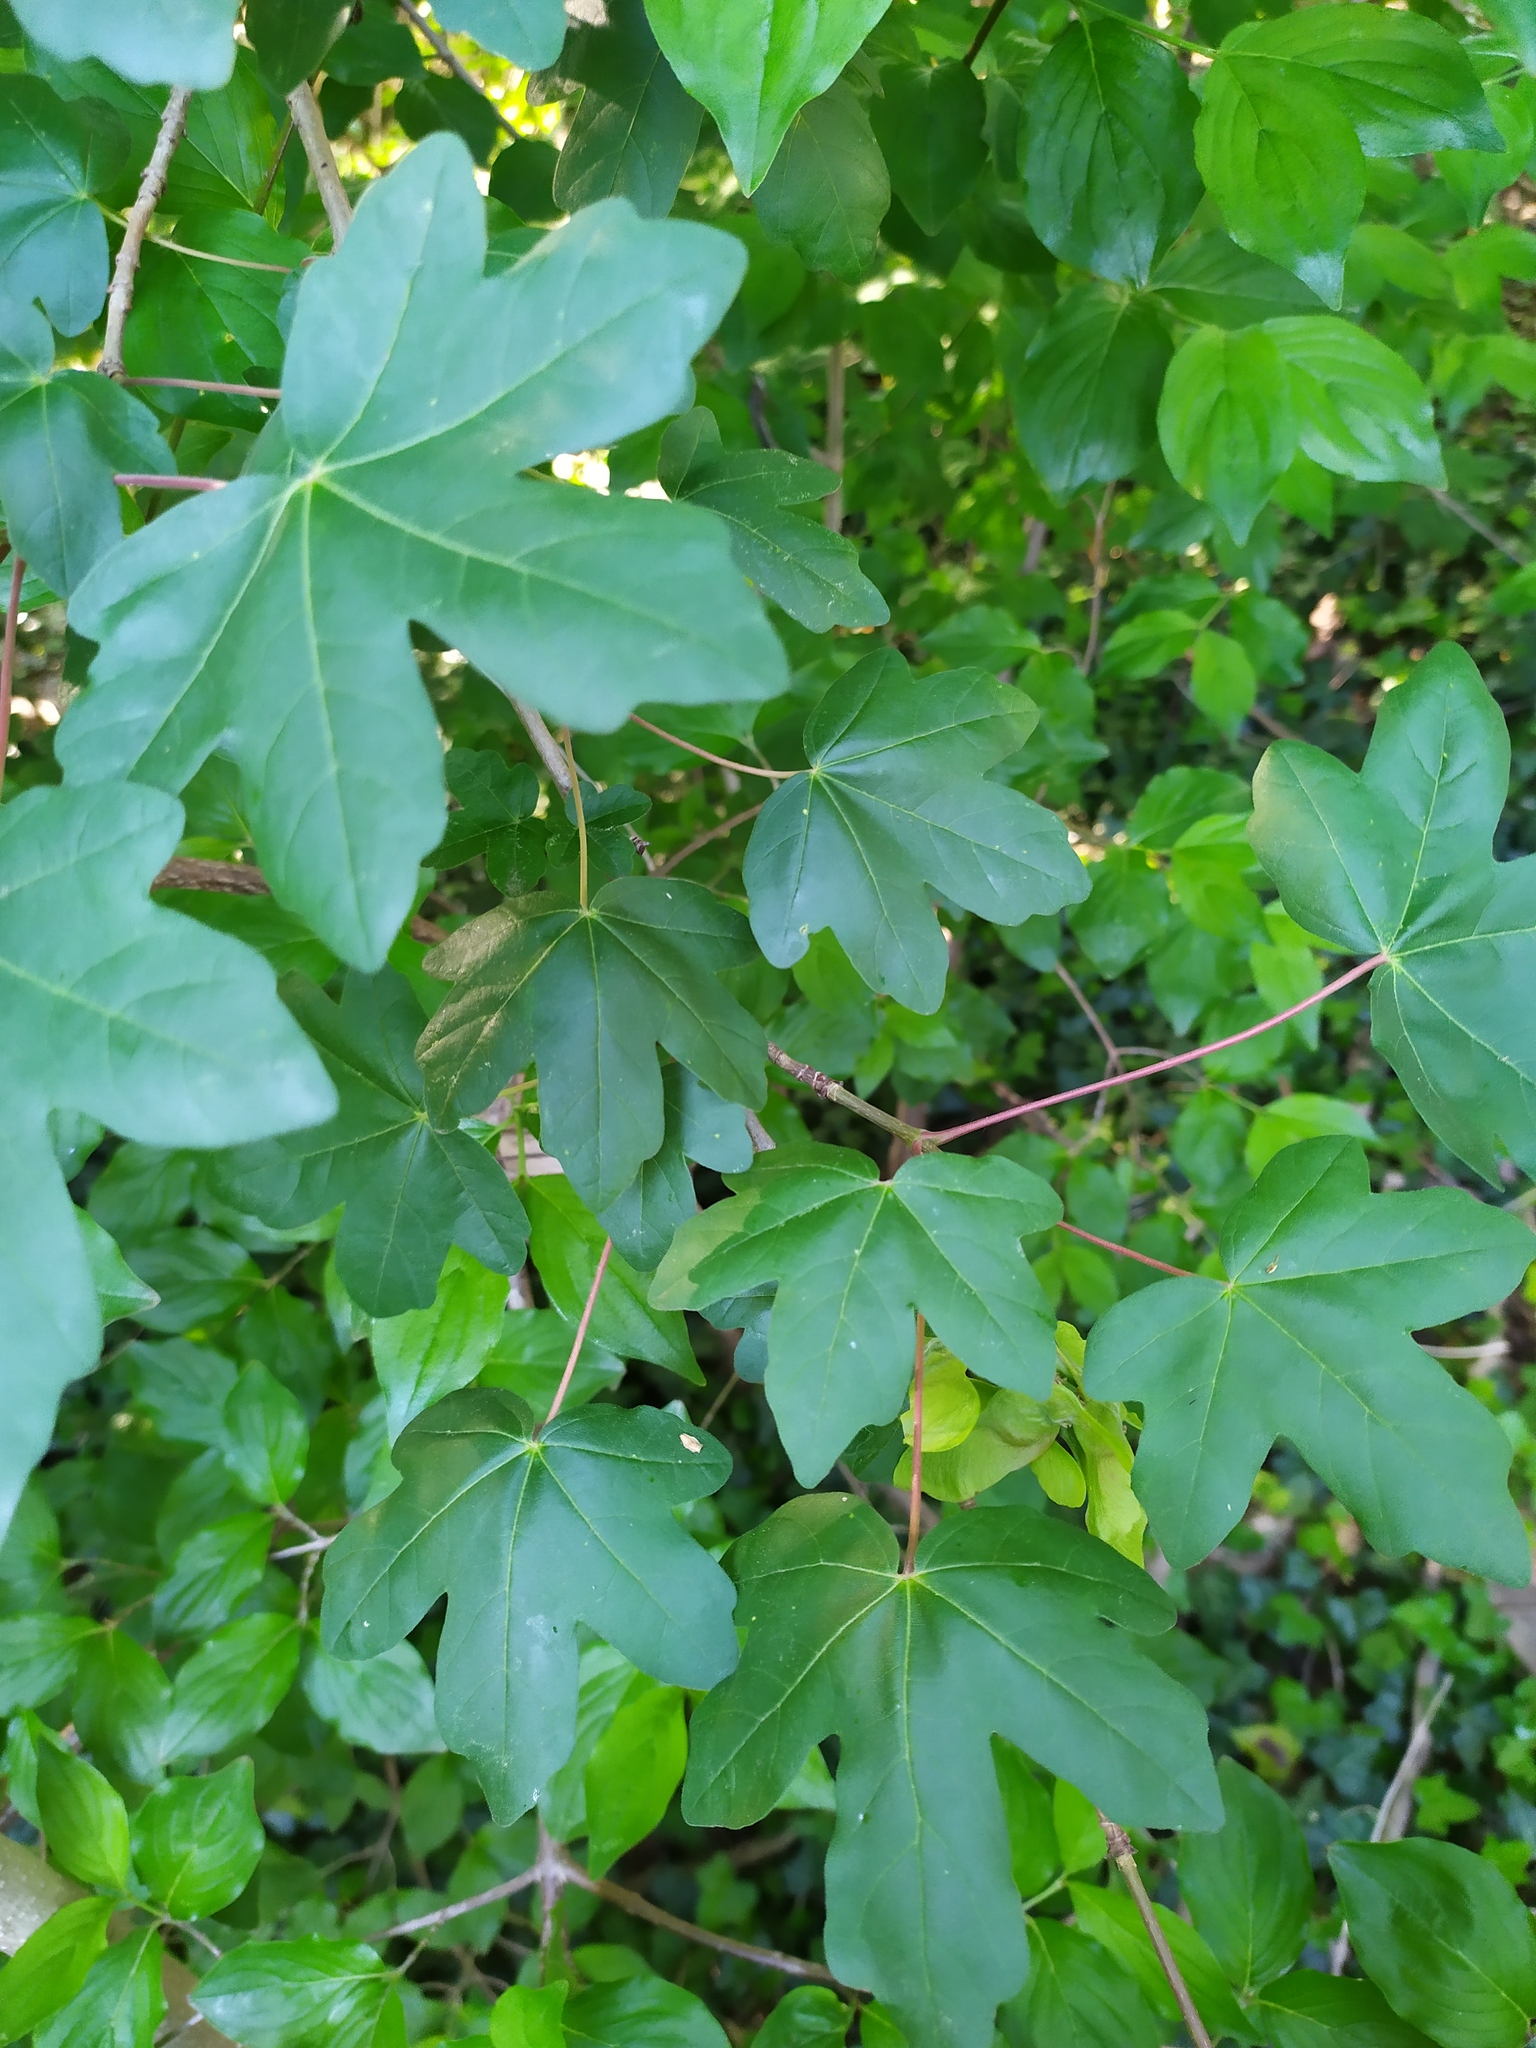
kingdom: Plantae
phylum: Tracheophyta
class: Magnoliopsida
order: Sapindales
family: Sapindaceae
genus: Acer
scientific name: Acer campestre
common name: Field maple
